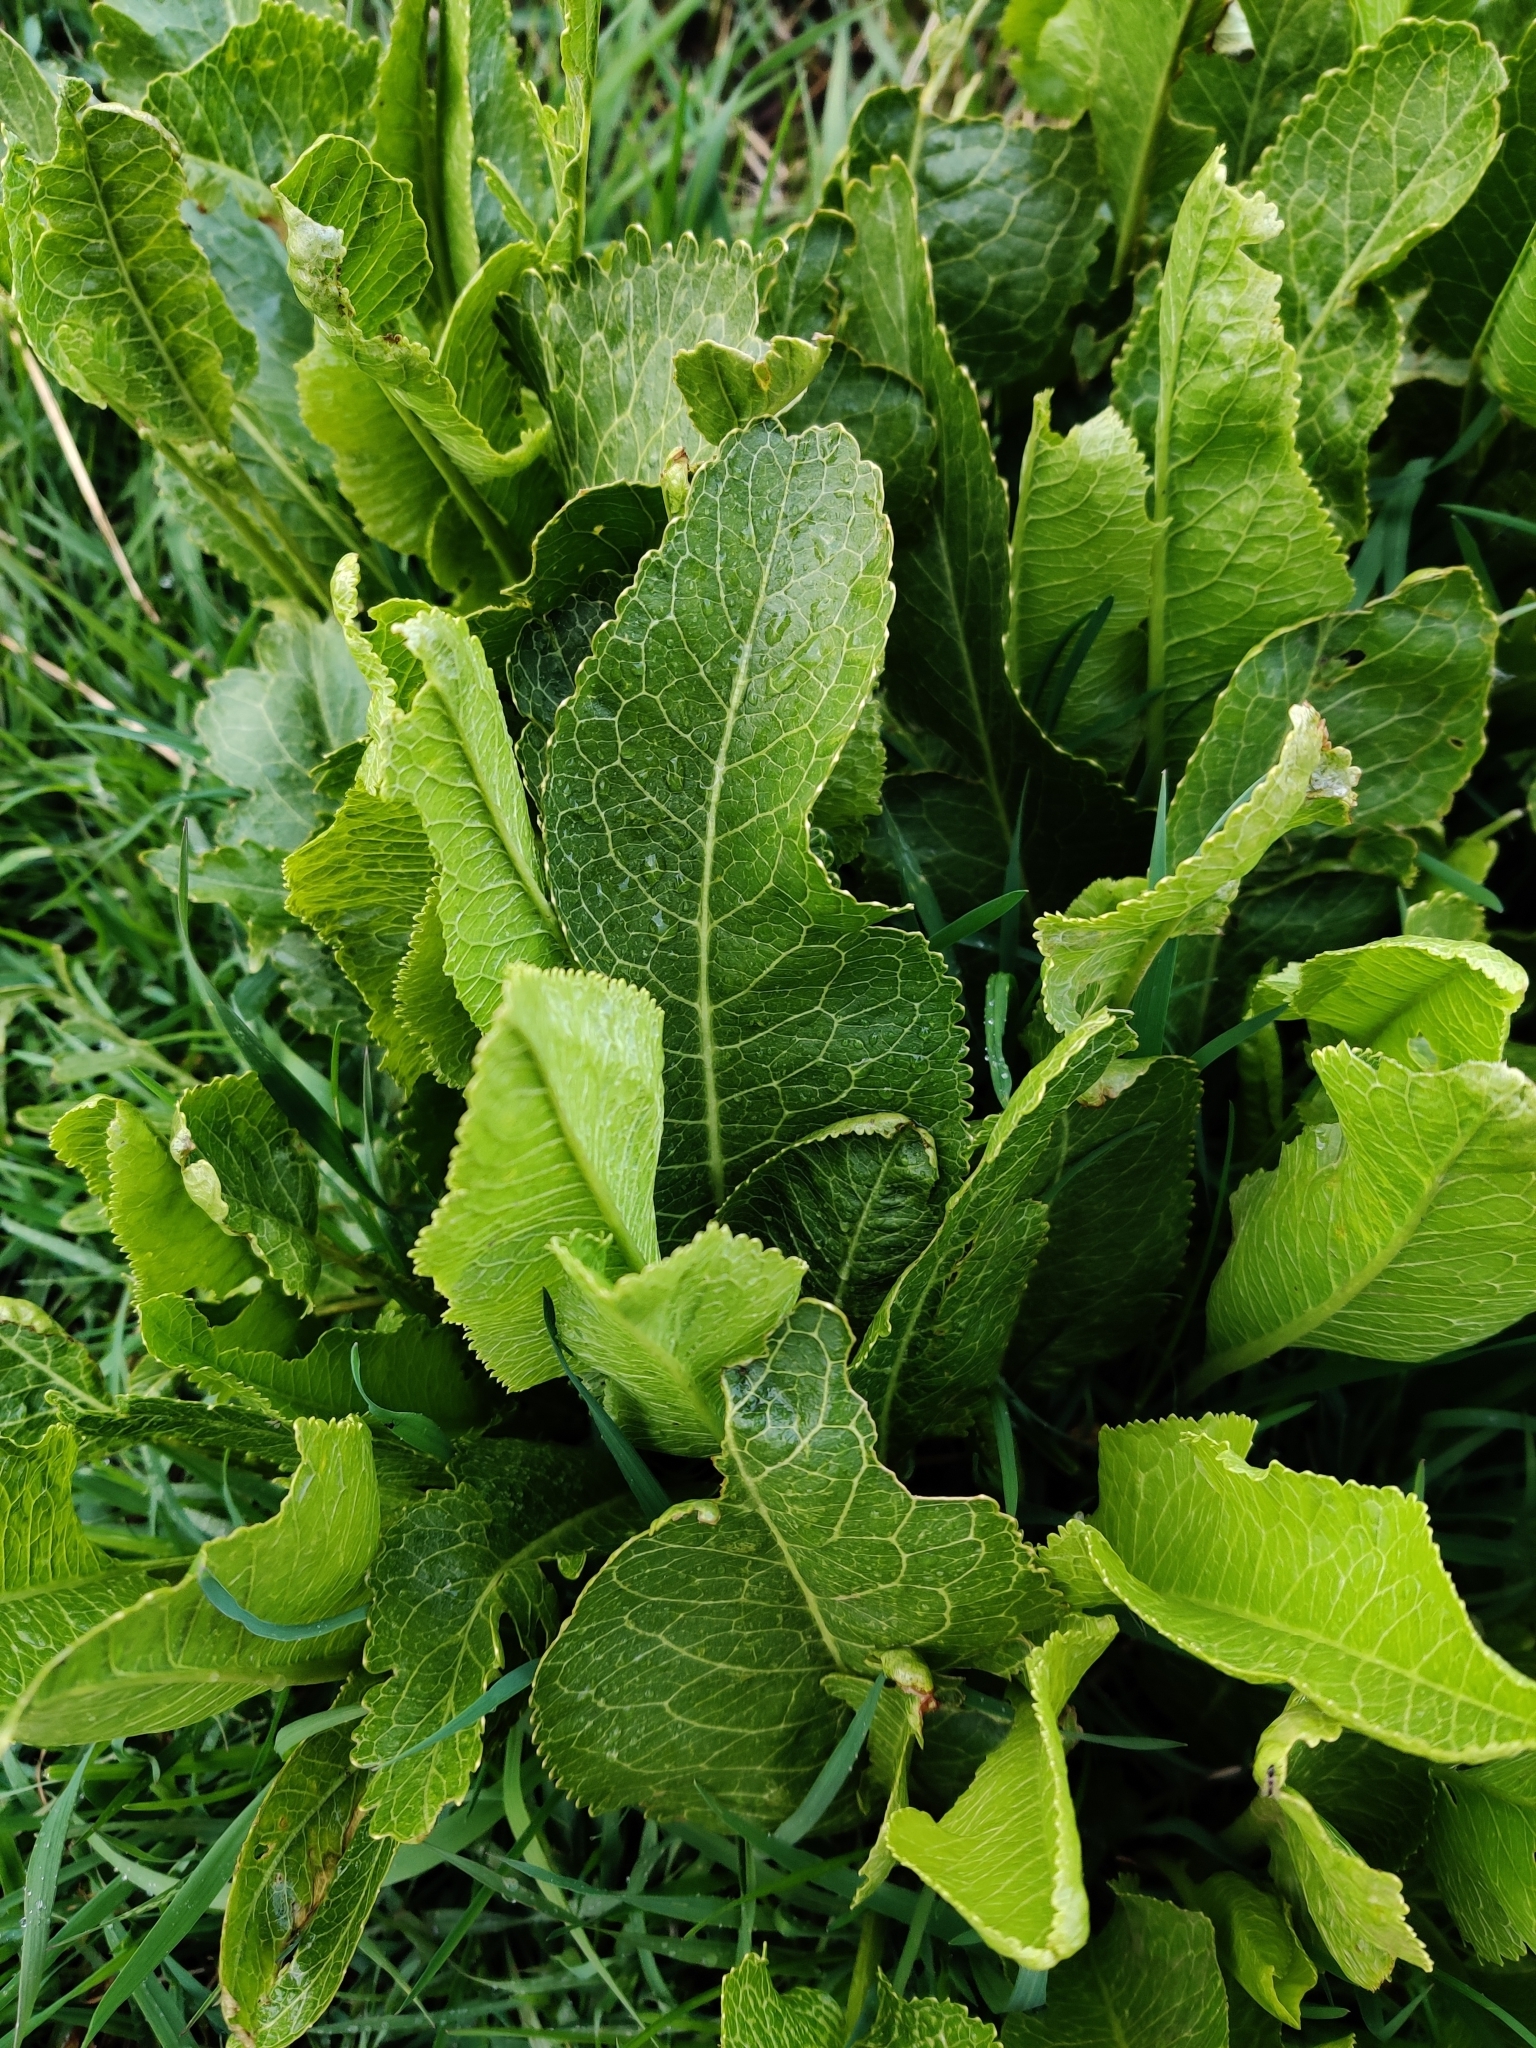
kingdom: Plantae
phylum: Tracheophyta
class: Magnoliopsida
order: Brassicales
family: Brassicaceae
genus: Armoracia
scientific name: Armoracia rusticana
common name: Horseradish
